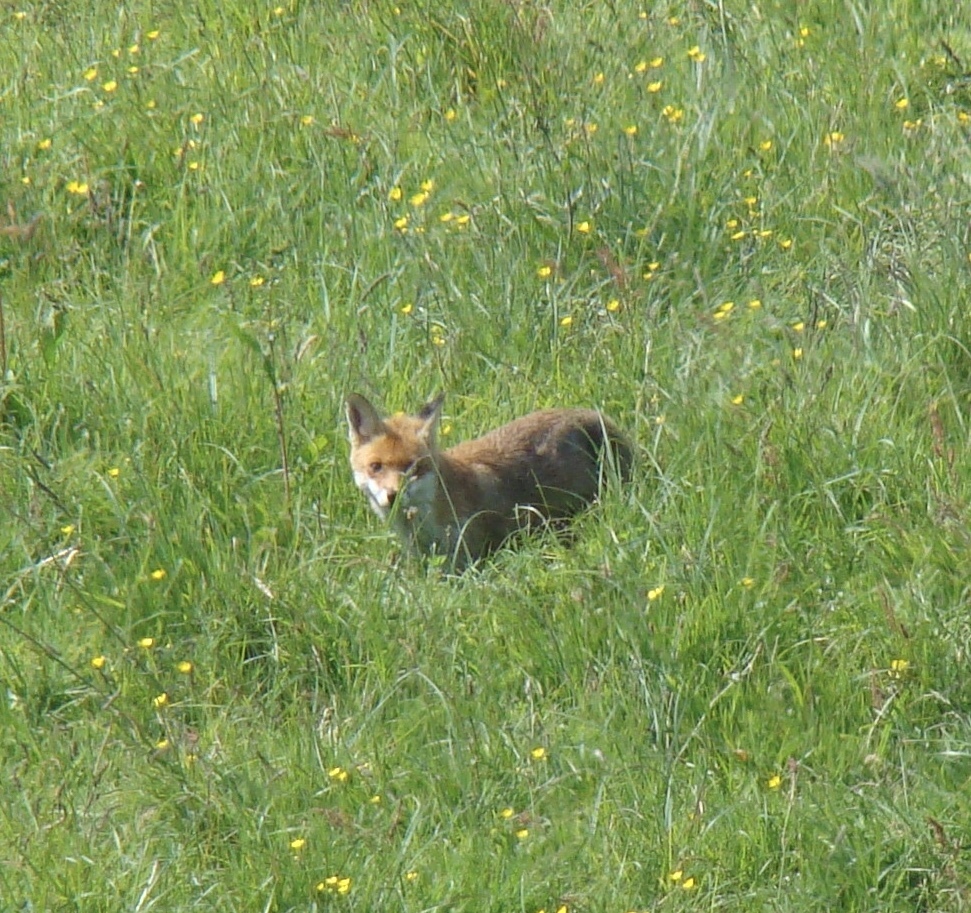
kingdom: Animalia
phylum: Chordata
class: Mammalia
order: Carnivora
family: Canidae
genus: Vulpes
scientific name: Vulpes vulpes
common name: Red fox
